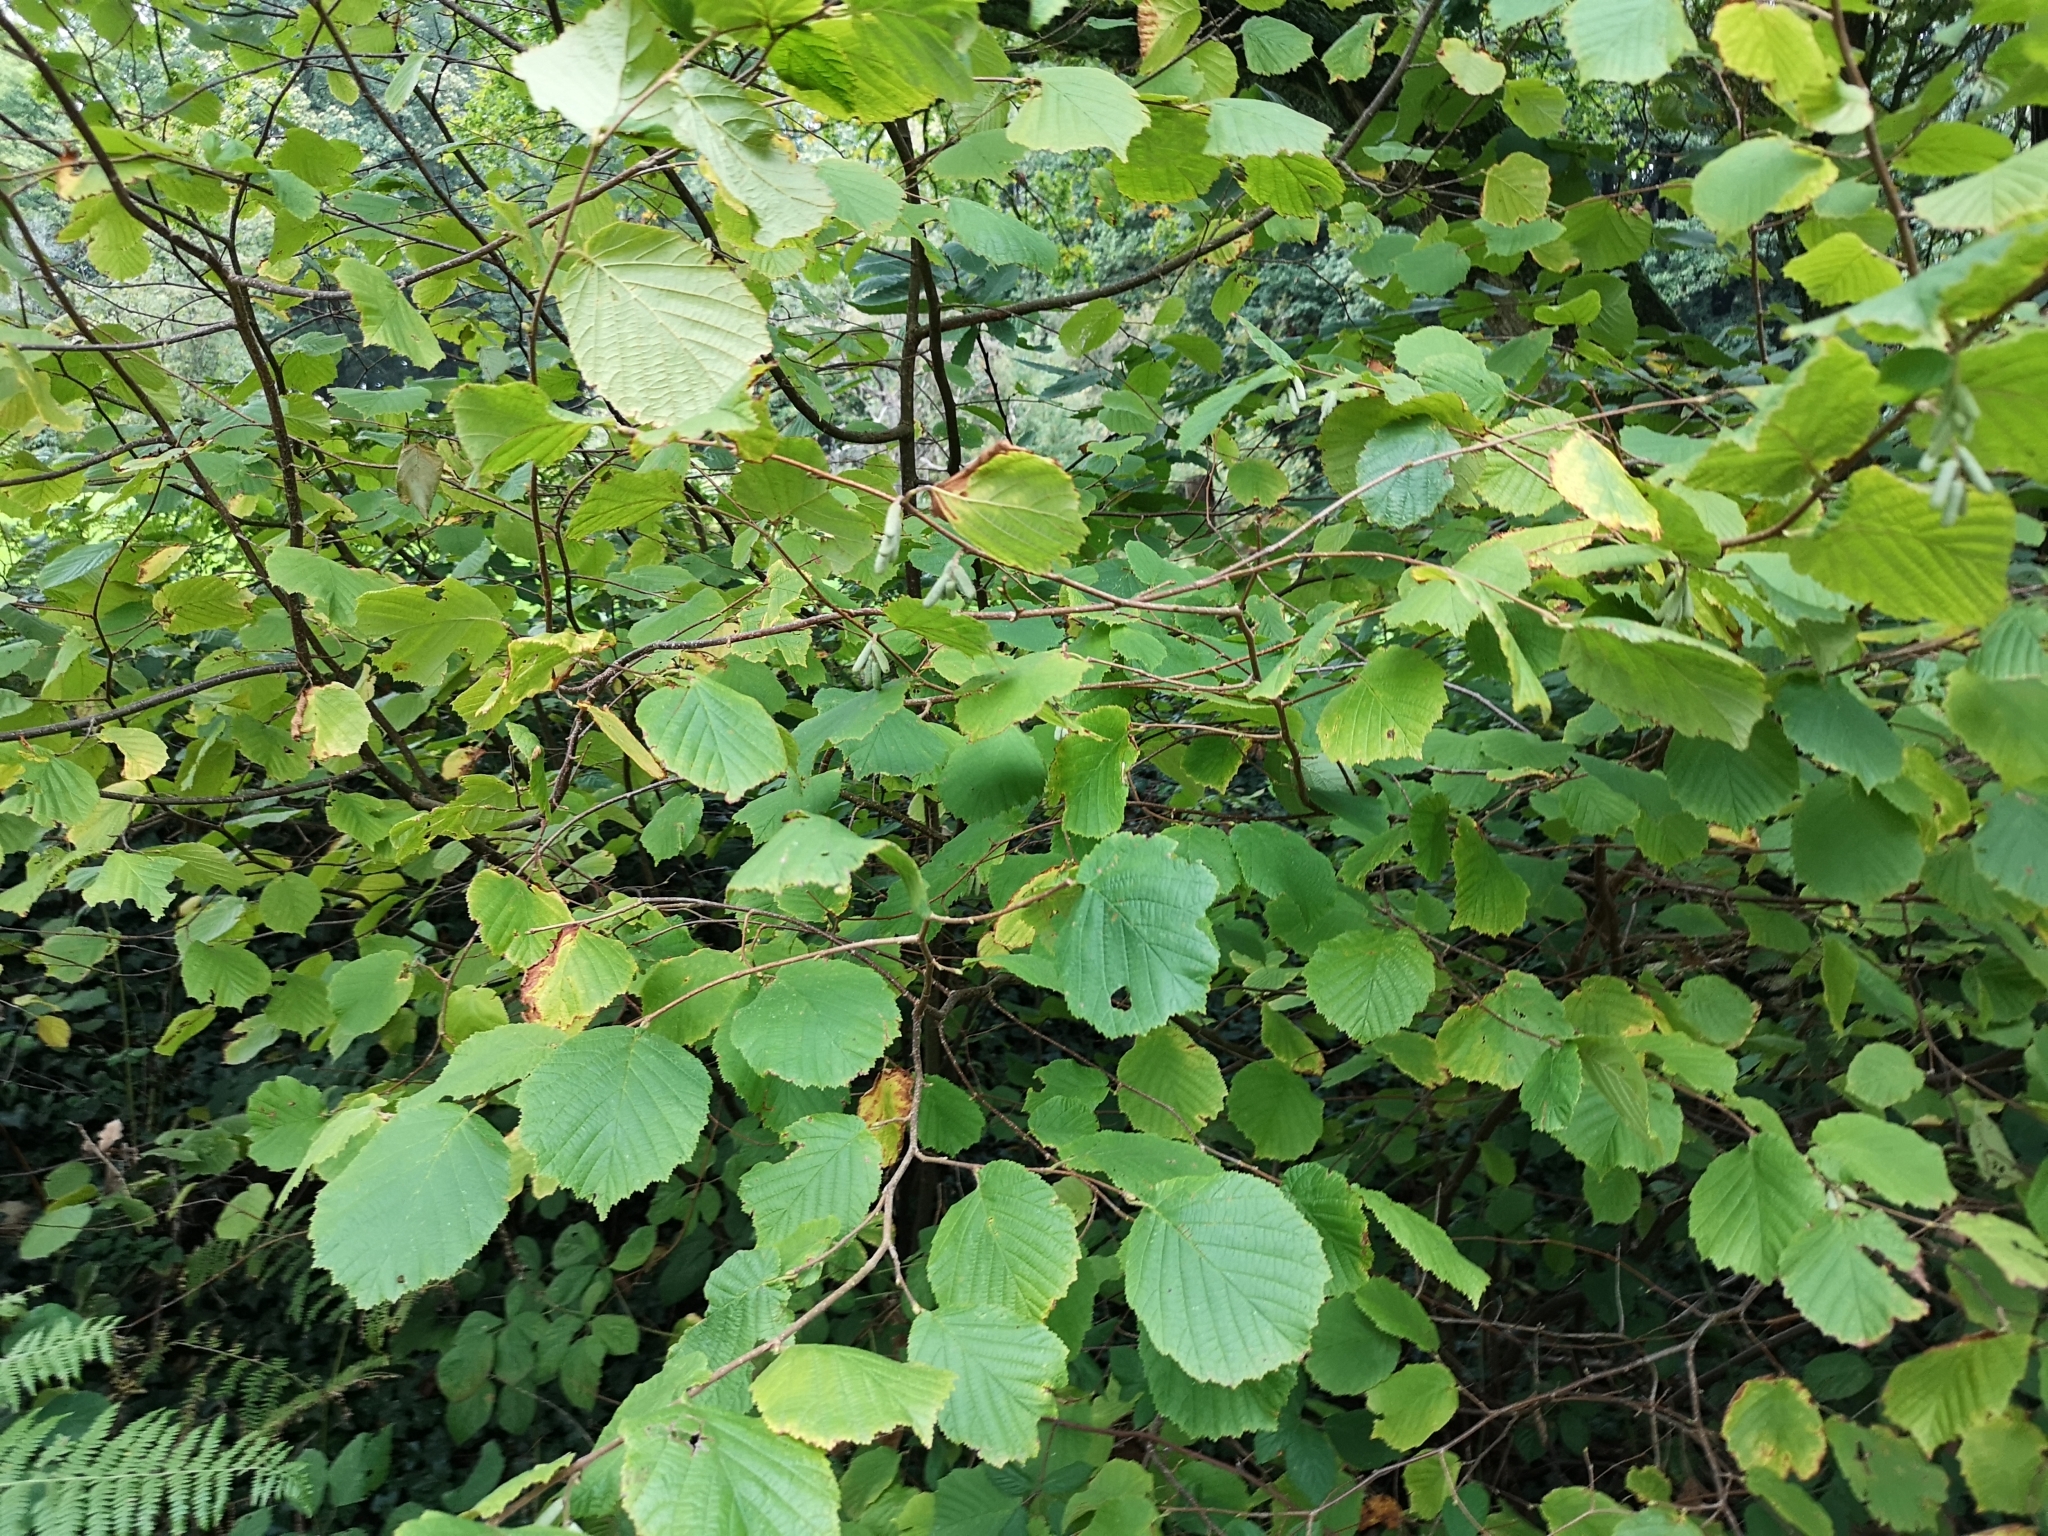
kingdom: Plantae
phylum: Tracheophyta
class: Magnoliopsida
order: Fagales
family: Betulaceae
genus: Corylus
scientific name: Corylus avellana
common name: European hazel
